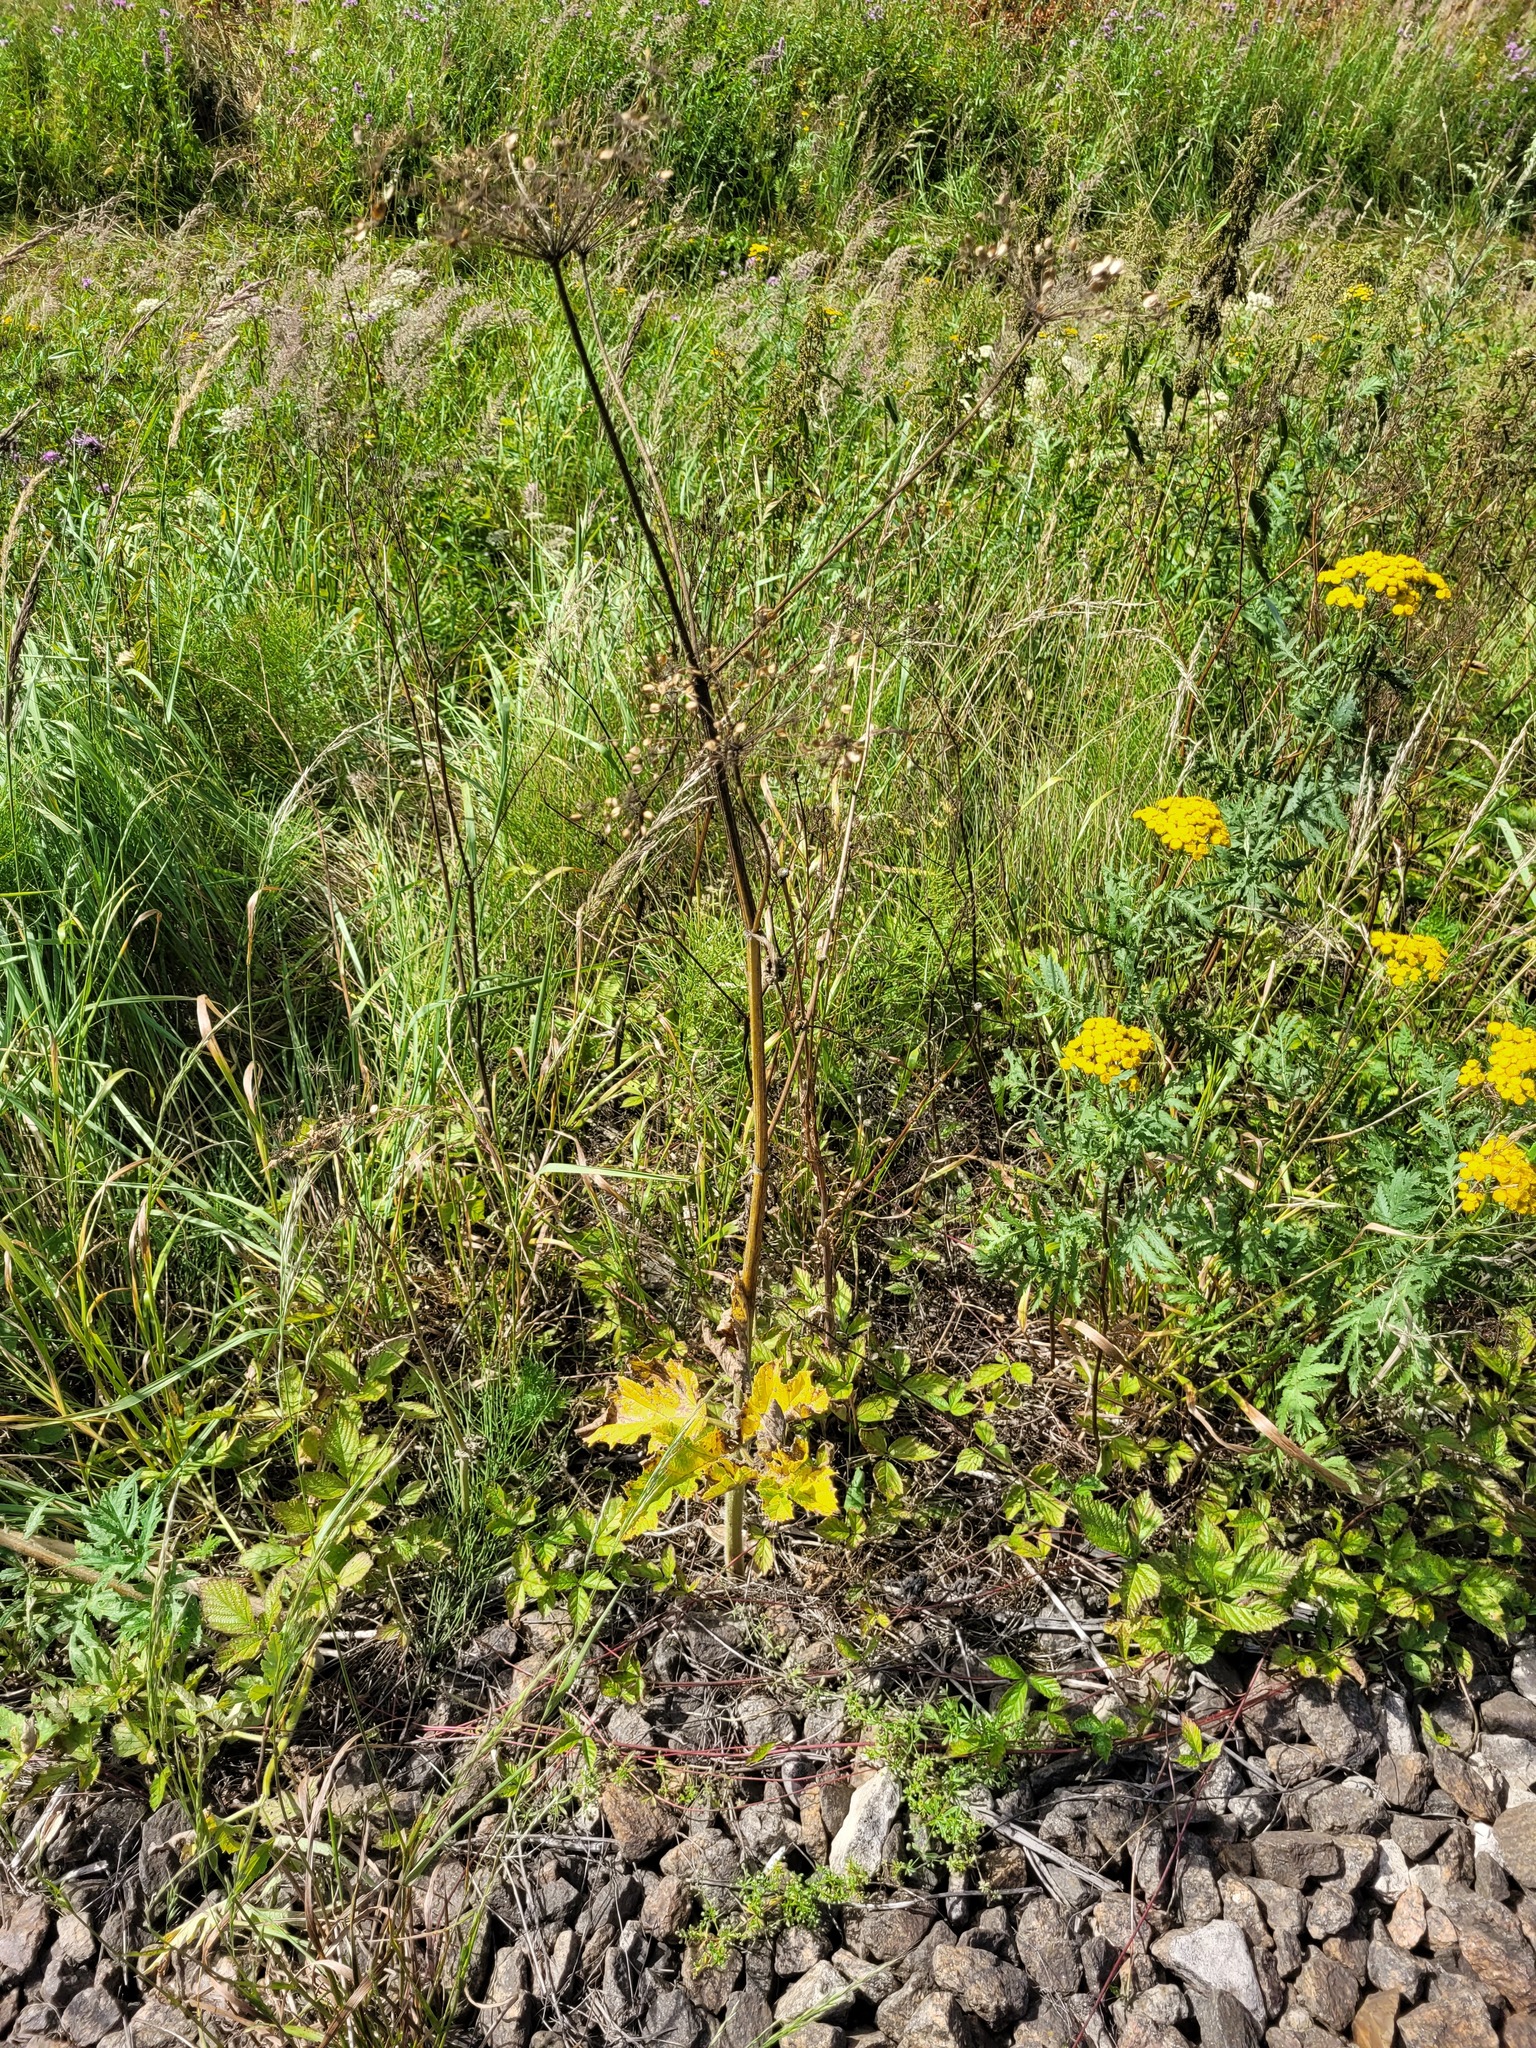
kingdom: Plantae
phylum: Tracheophyta
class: Magnoliopsida
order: Apiales
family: Apiaceae
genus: Heracleum
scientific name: Heracleum sphondylium
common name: Hogweed
